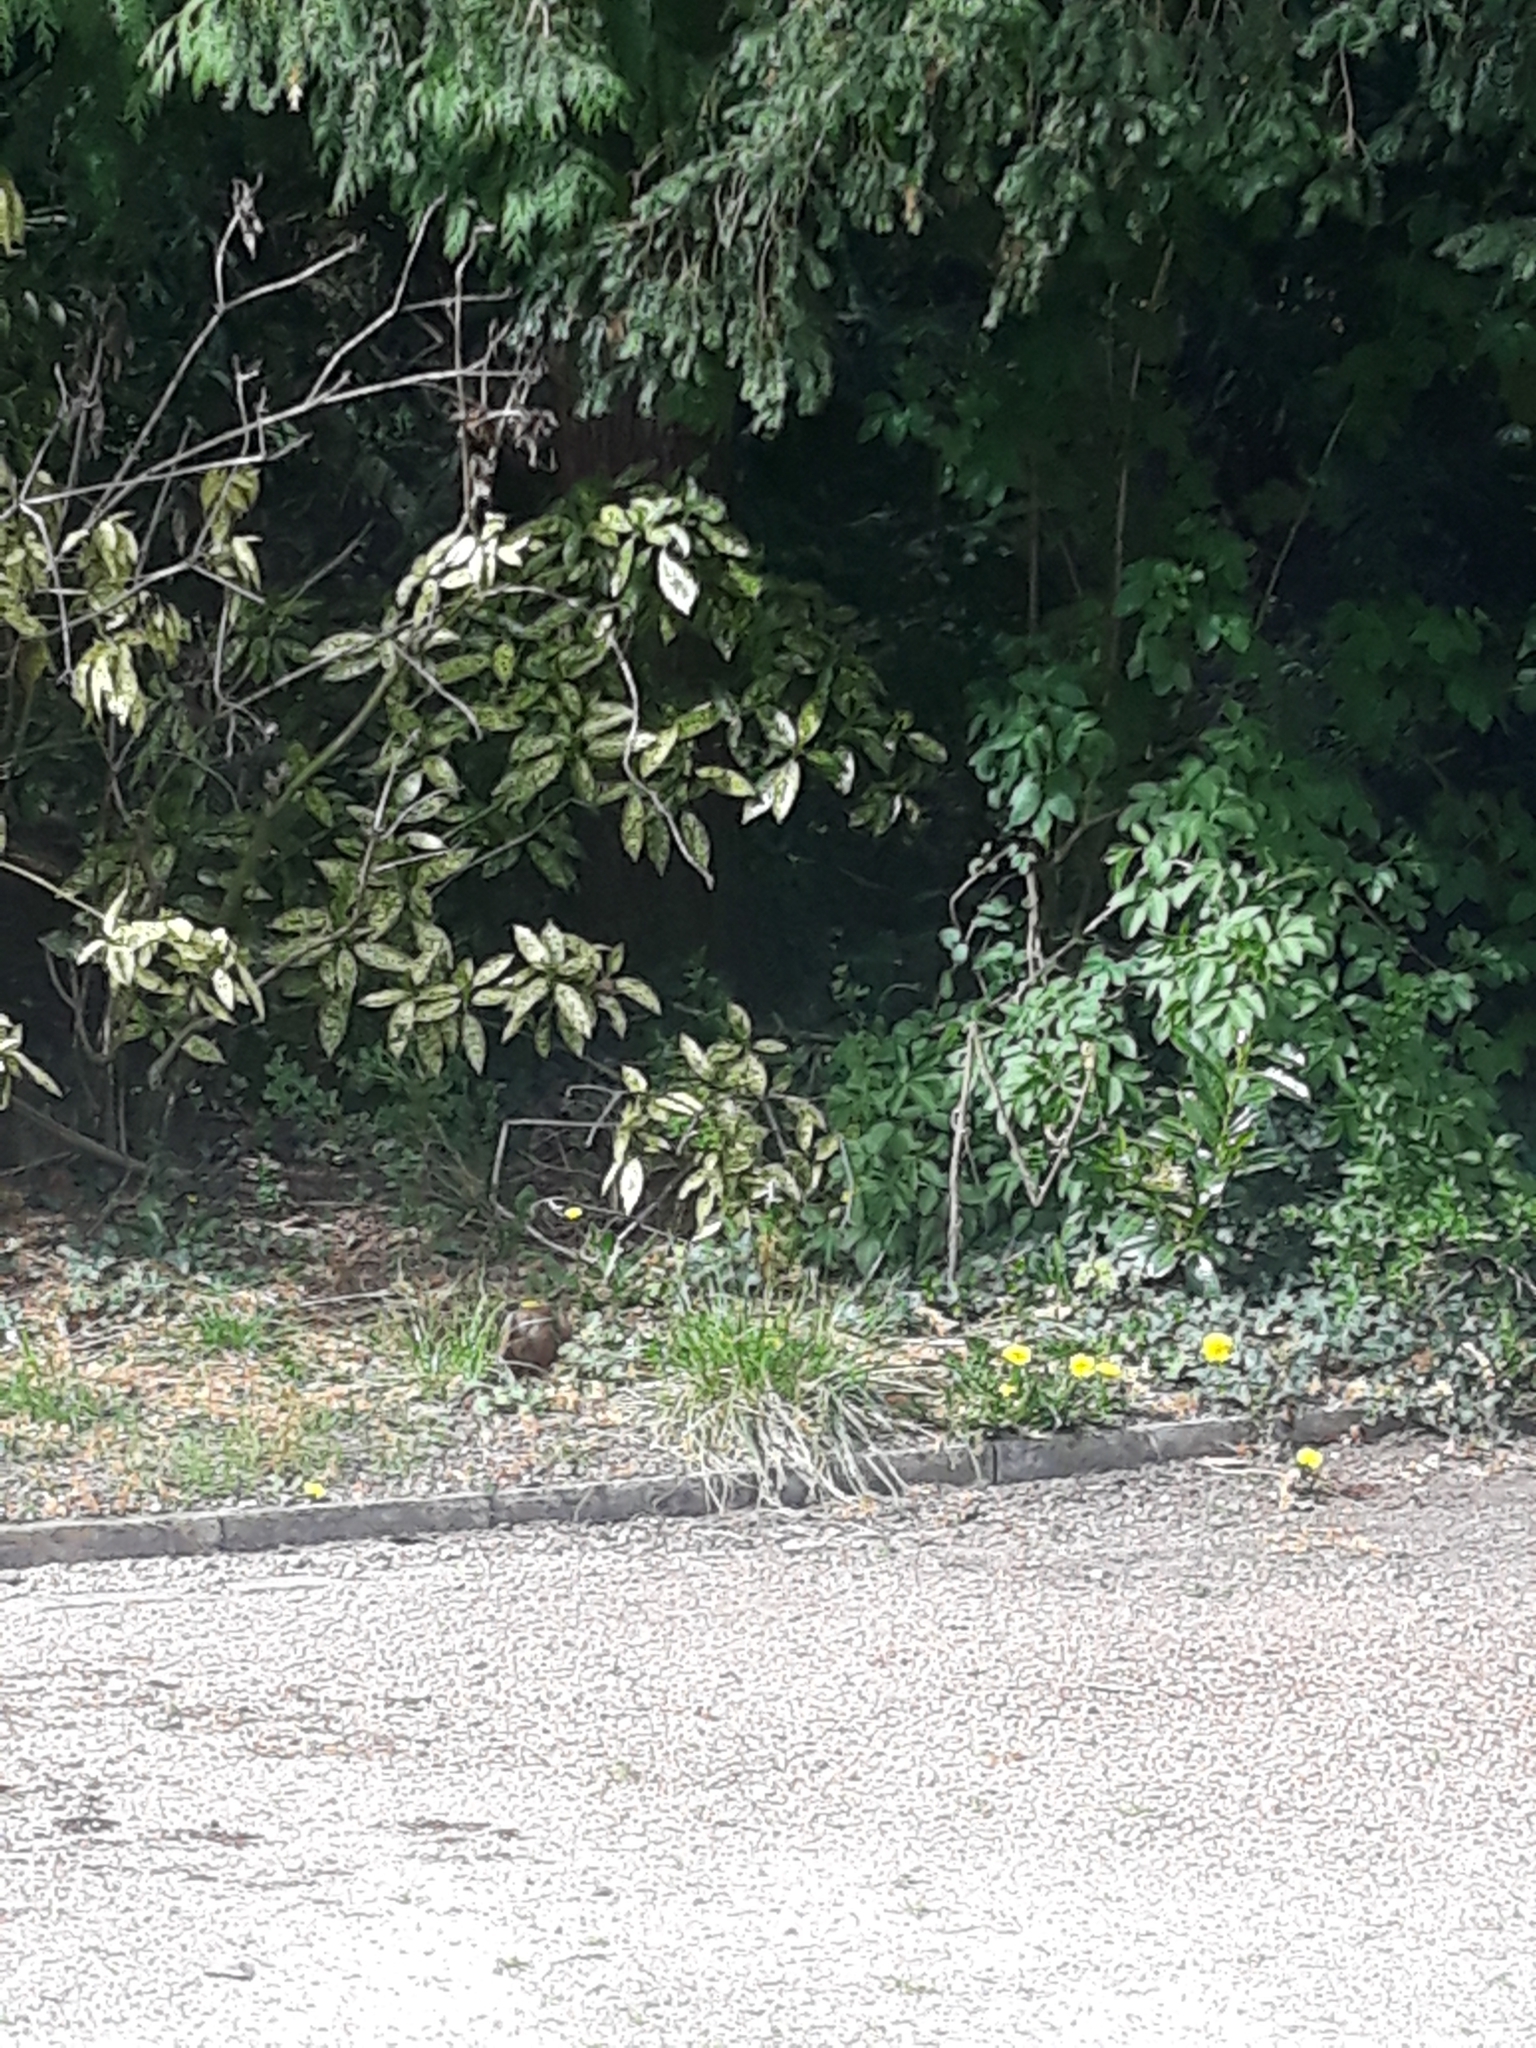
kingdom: Animalia
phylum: Chordata
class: Mammalia
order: Rodentia
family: Sciuridae
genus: Sciurus
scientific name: Sciurus vulgaris
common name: Eurasian red squirrel
